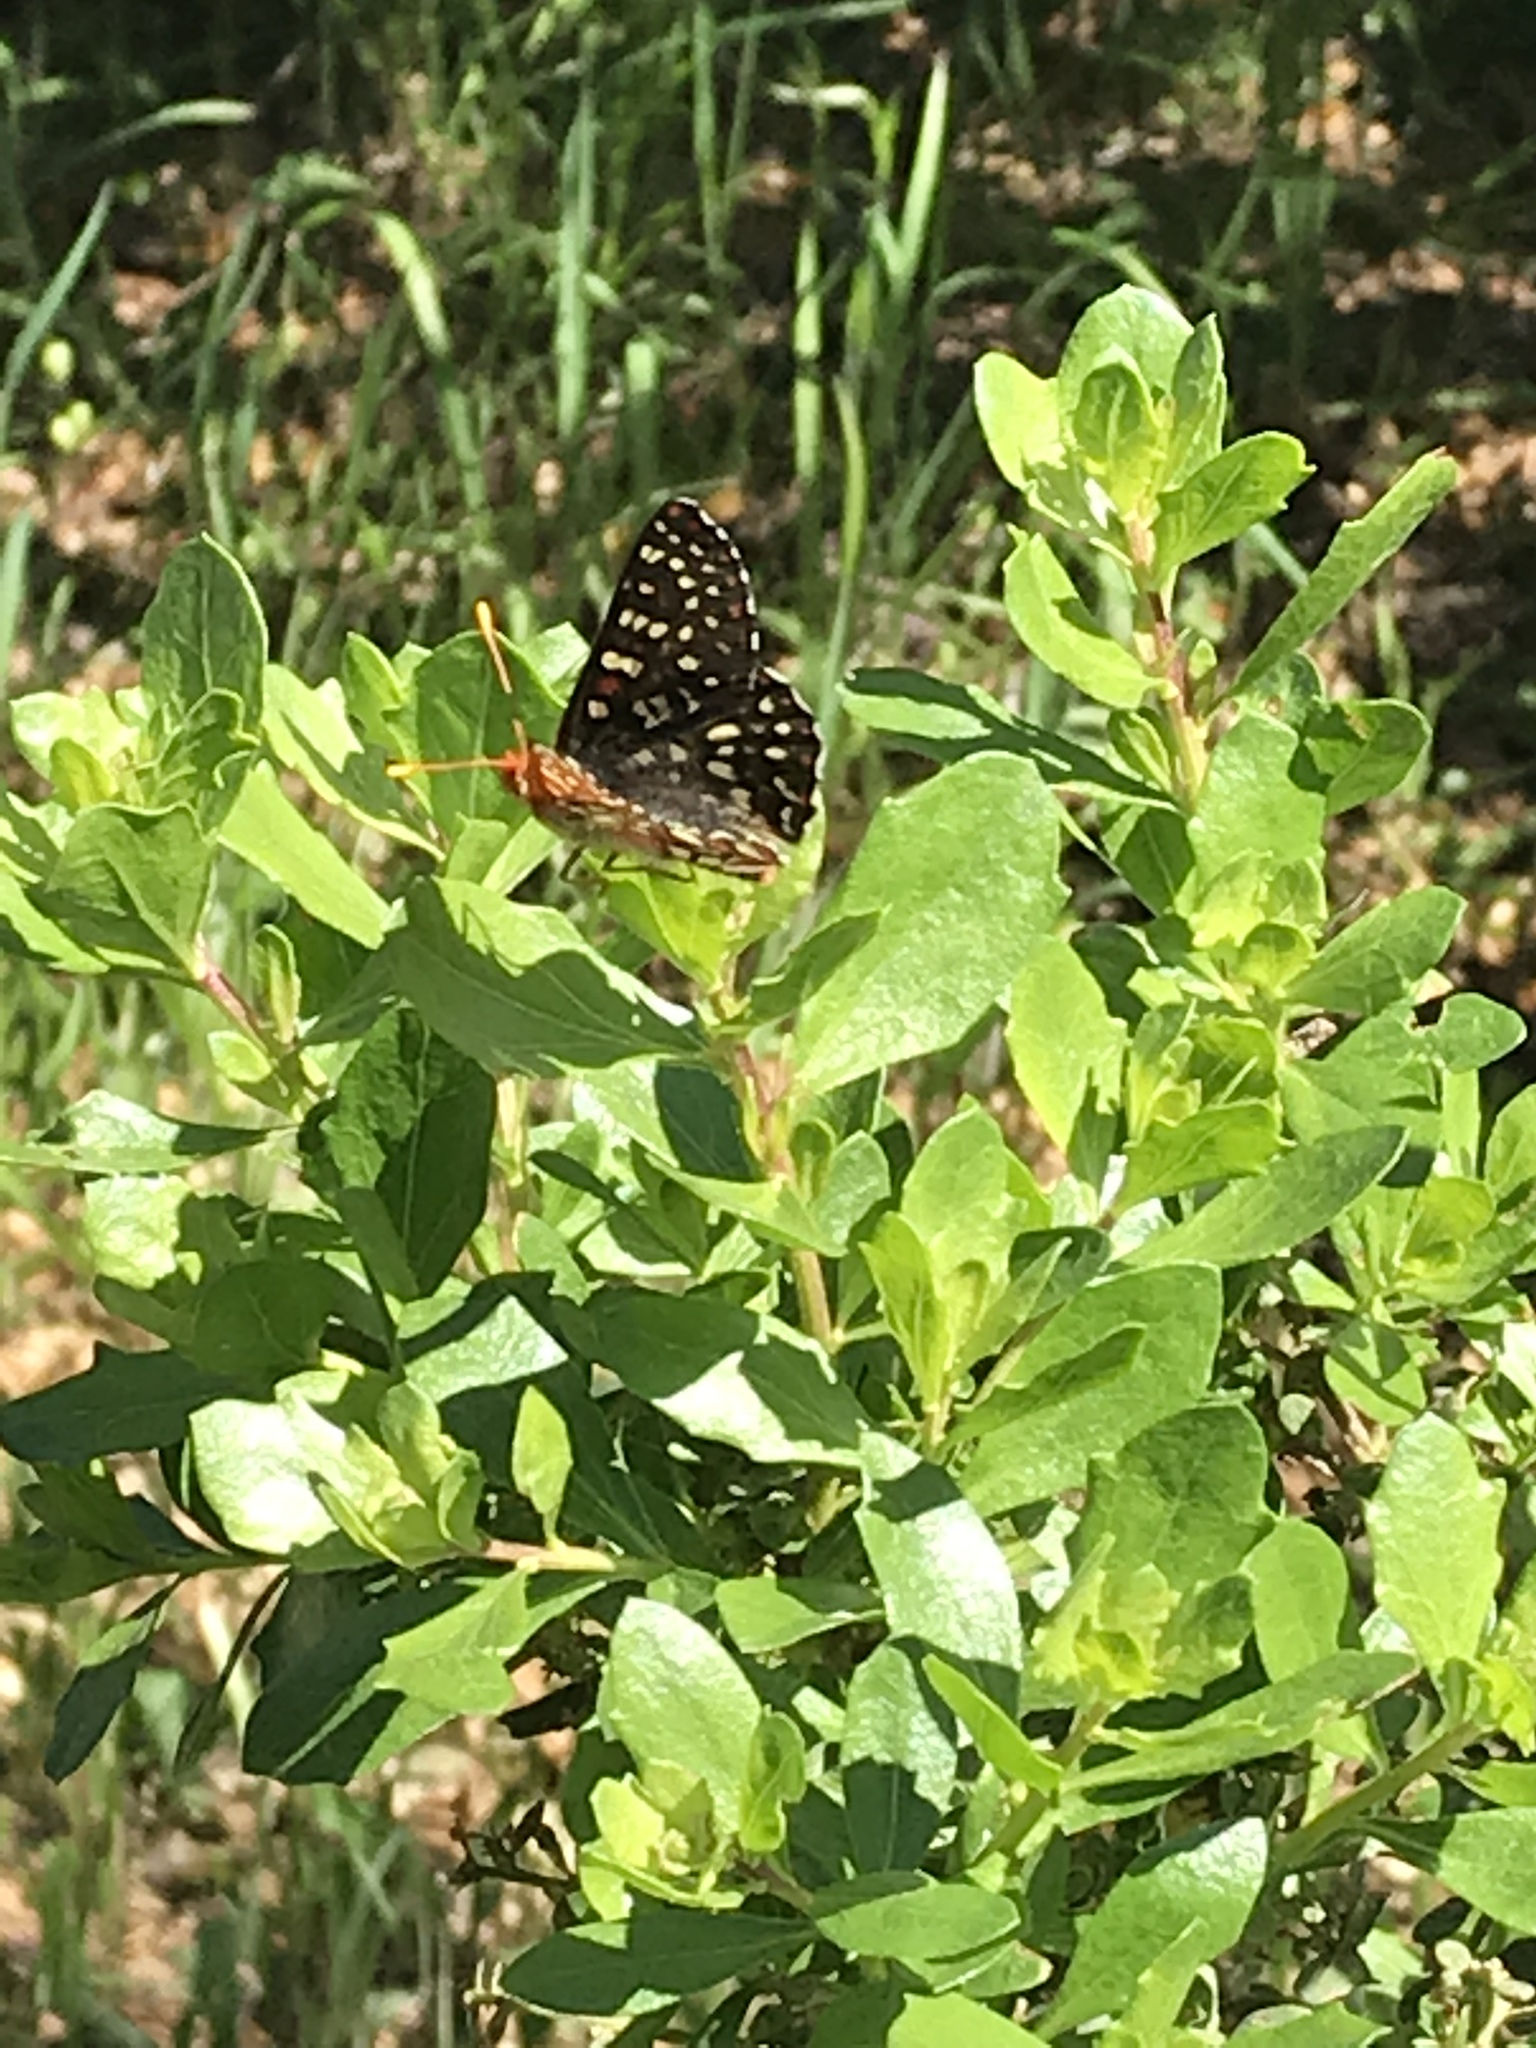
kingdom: Animalia
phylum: Arthropoda
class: Insecta
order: Lepidoptera
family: Nymphalidae
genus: Occidryas
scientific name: Occidryas chalcedona
